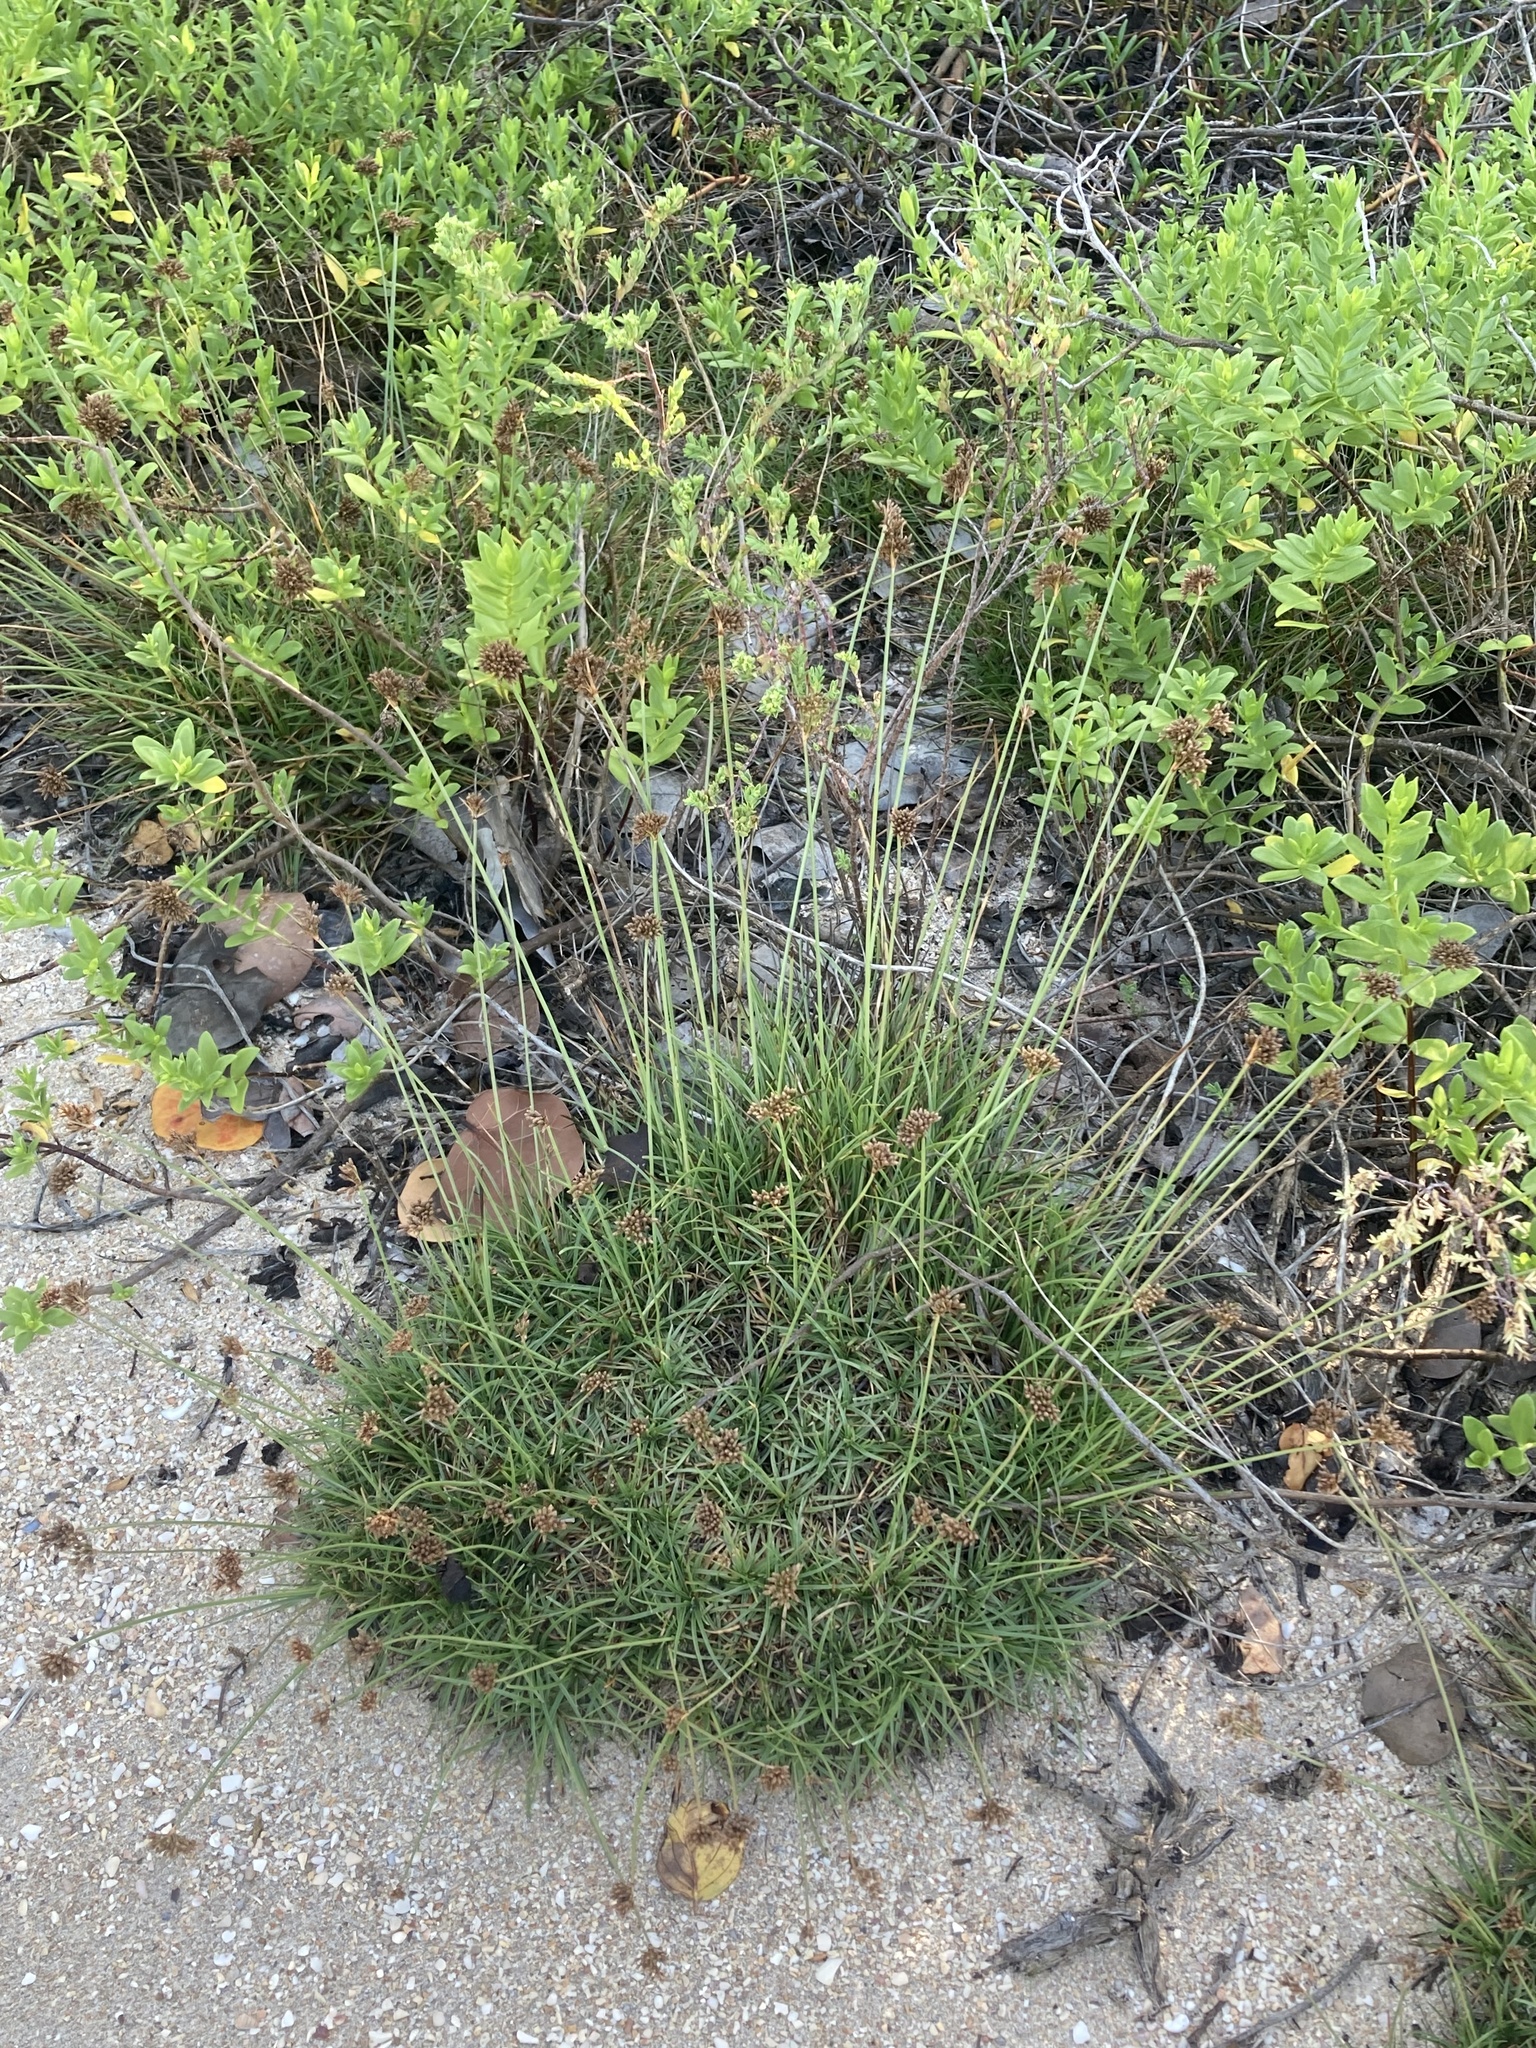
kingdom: Plantae
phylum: Tracheophyta
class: Liliopsida
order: Poales
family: Cyperaceae
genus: Fimbristylis
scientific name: Fimbristylis cymosa
